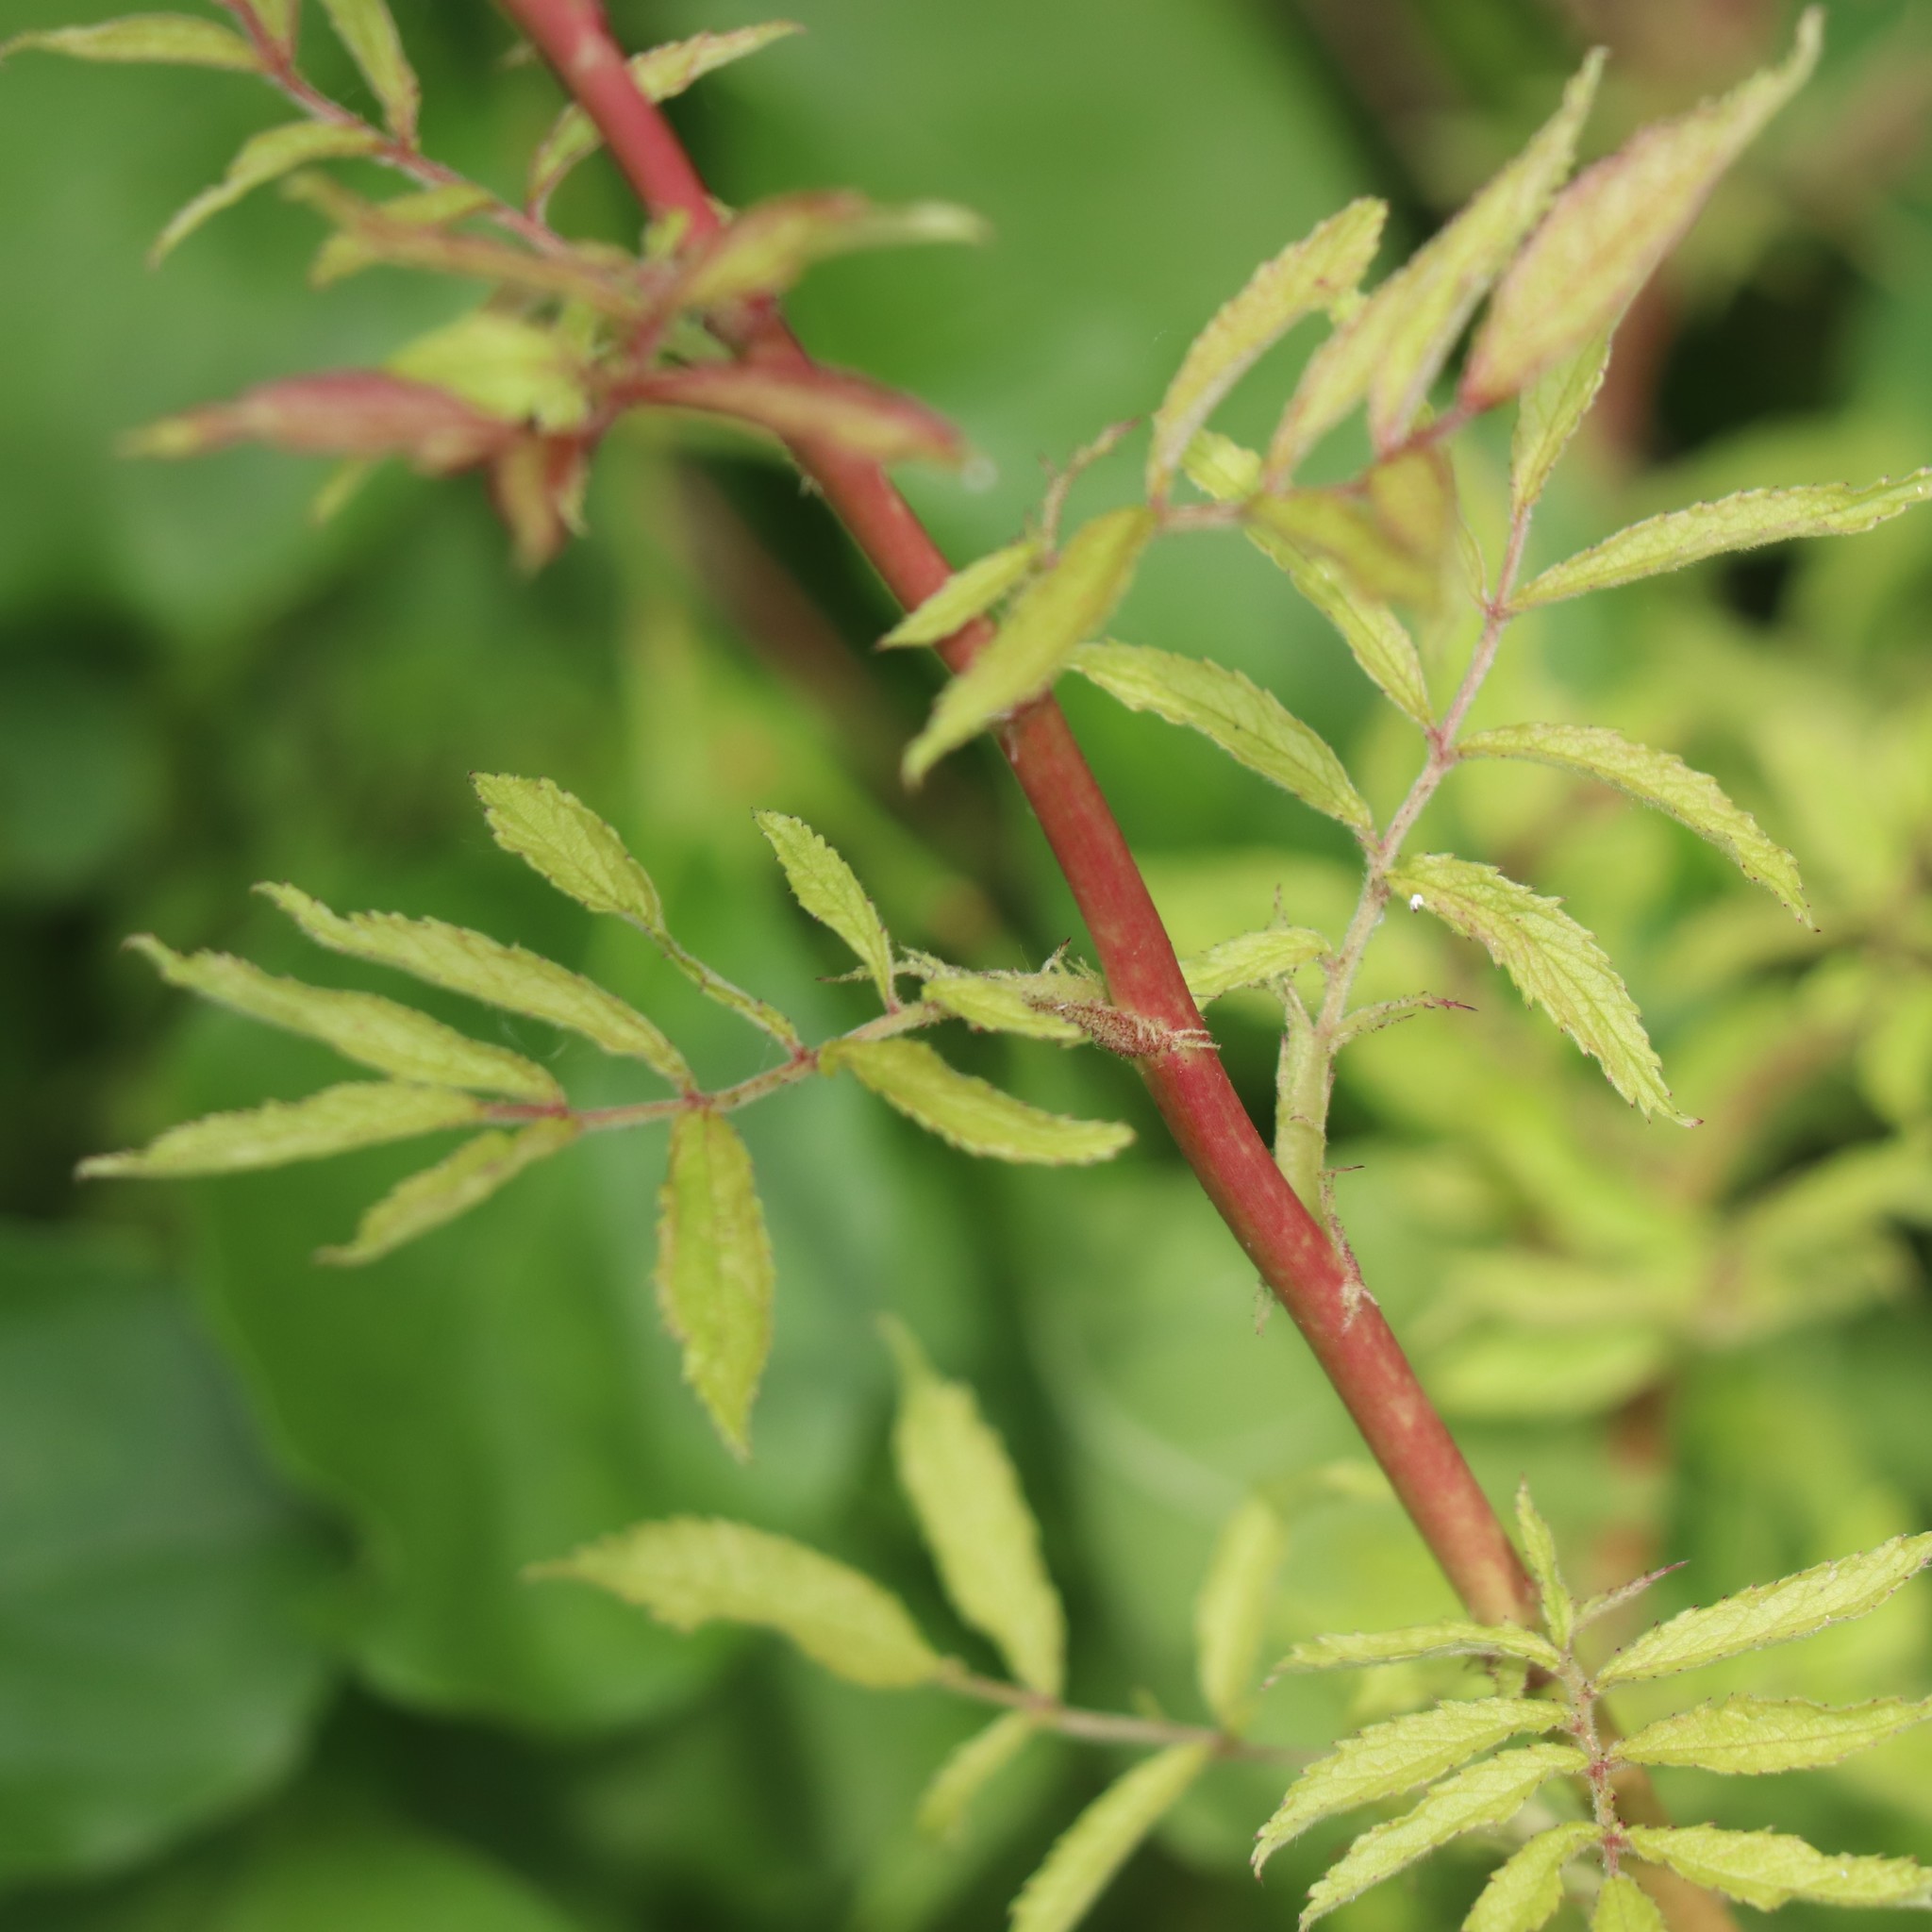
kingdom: Plantae
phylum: Tracheophyta
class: Magnoliopsida
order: Rosales
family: Rosaceae
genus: Rosa
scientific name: Rosa multiflora
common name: Multiflora rose
